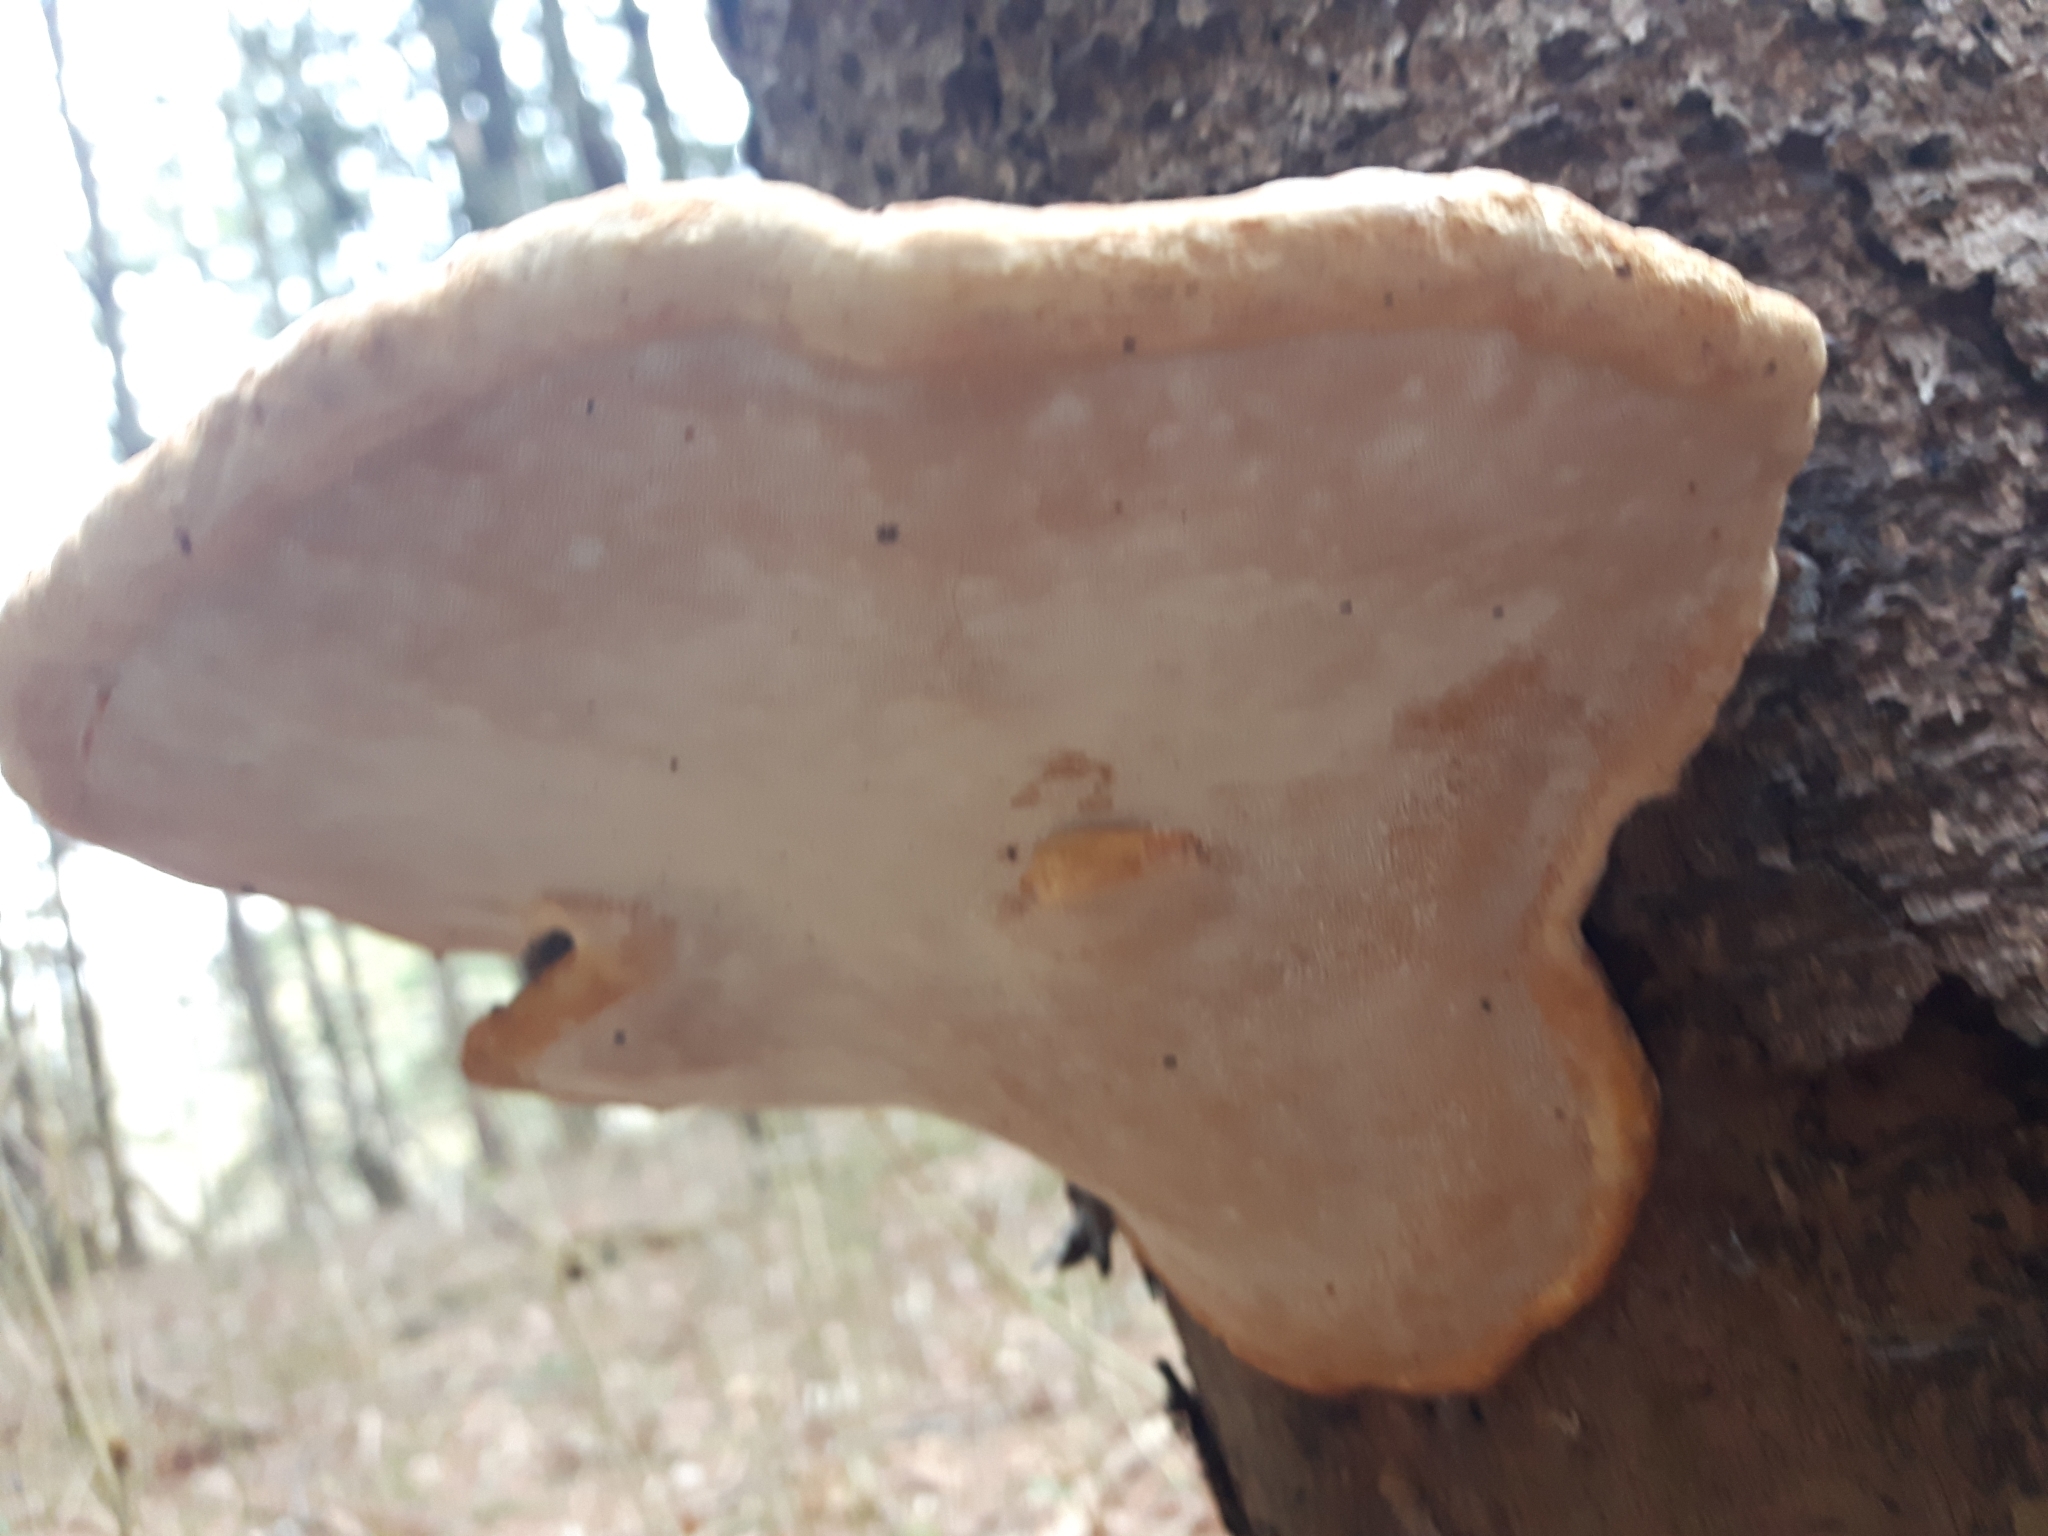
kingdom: Fungi
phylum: Basidiomycota
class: Agaricomycetes
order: Polyporales
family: Fomitopsidaceae
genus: Fomitopsis
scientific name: Fomitopsis mounceae
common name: Northern red belt
